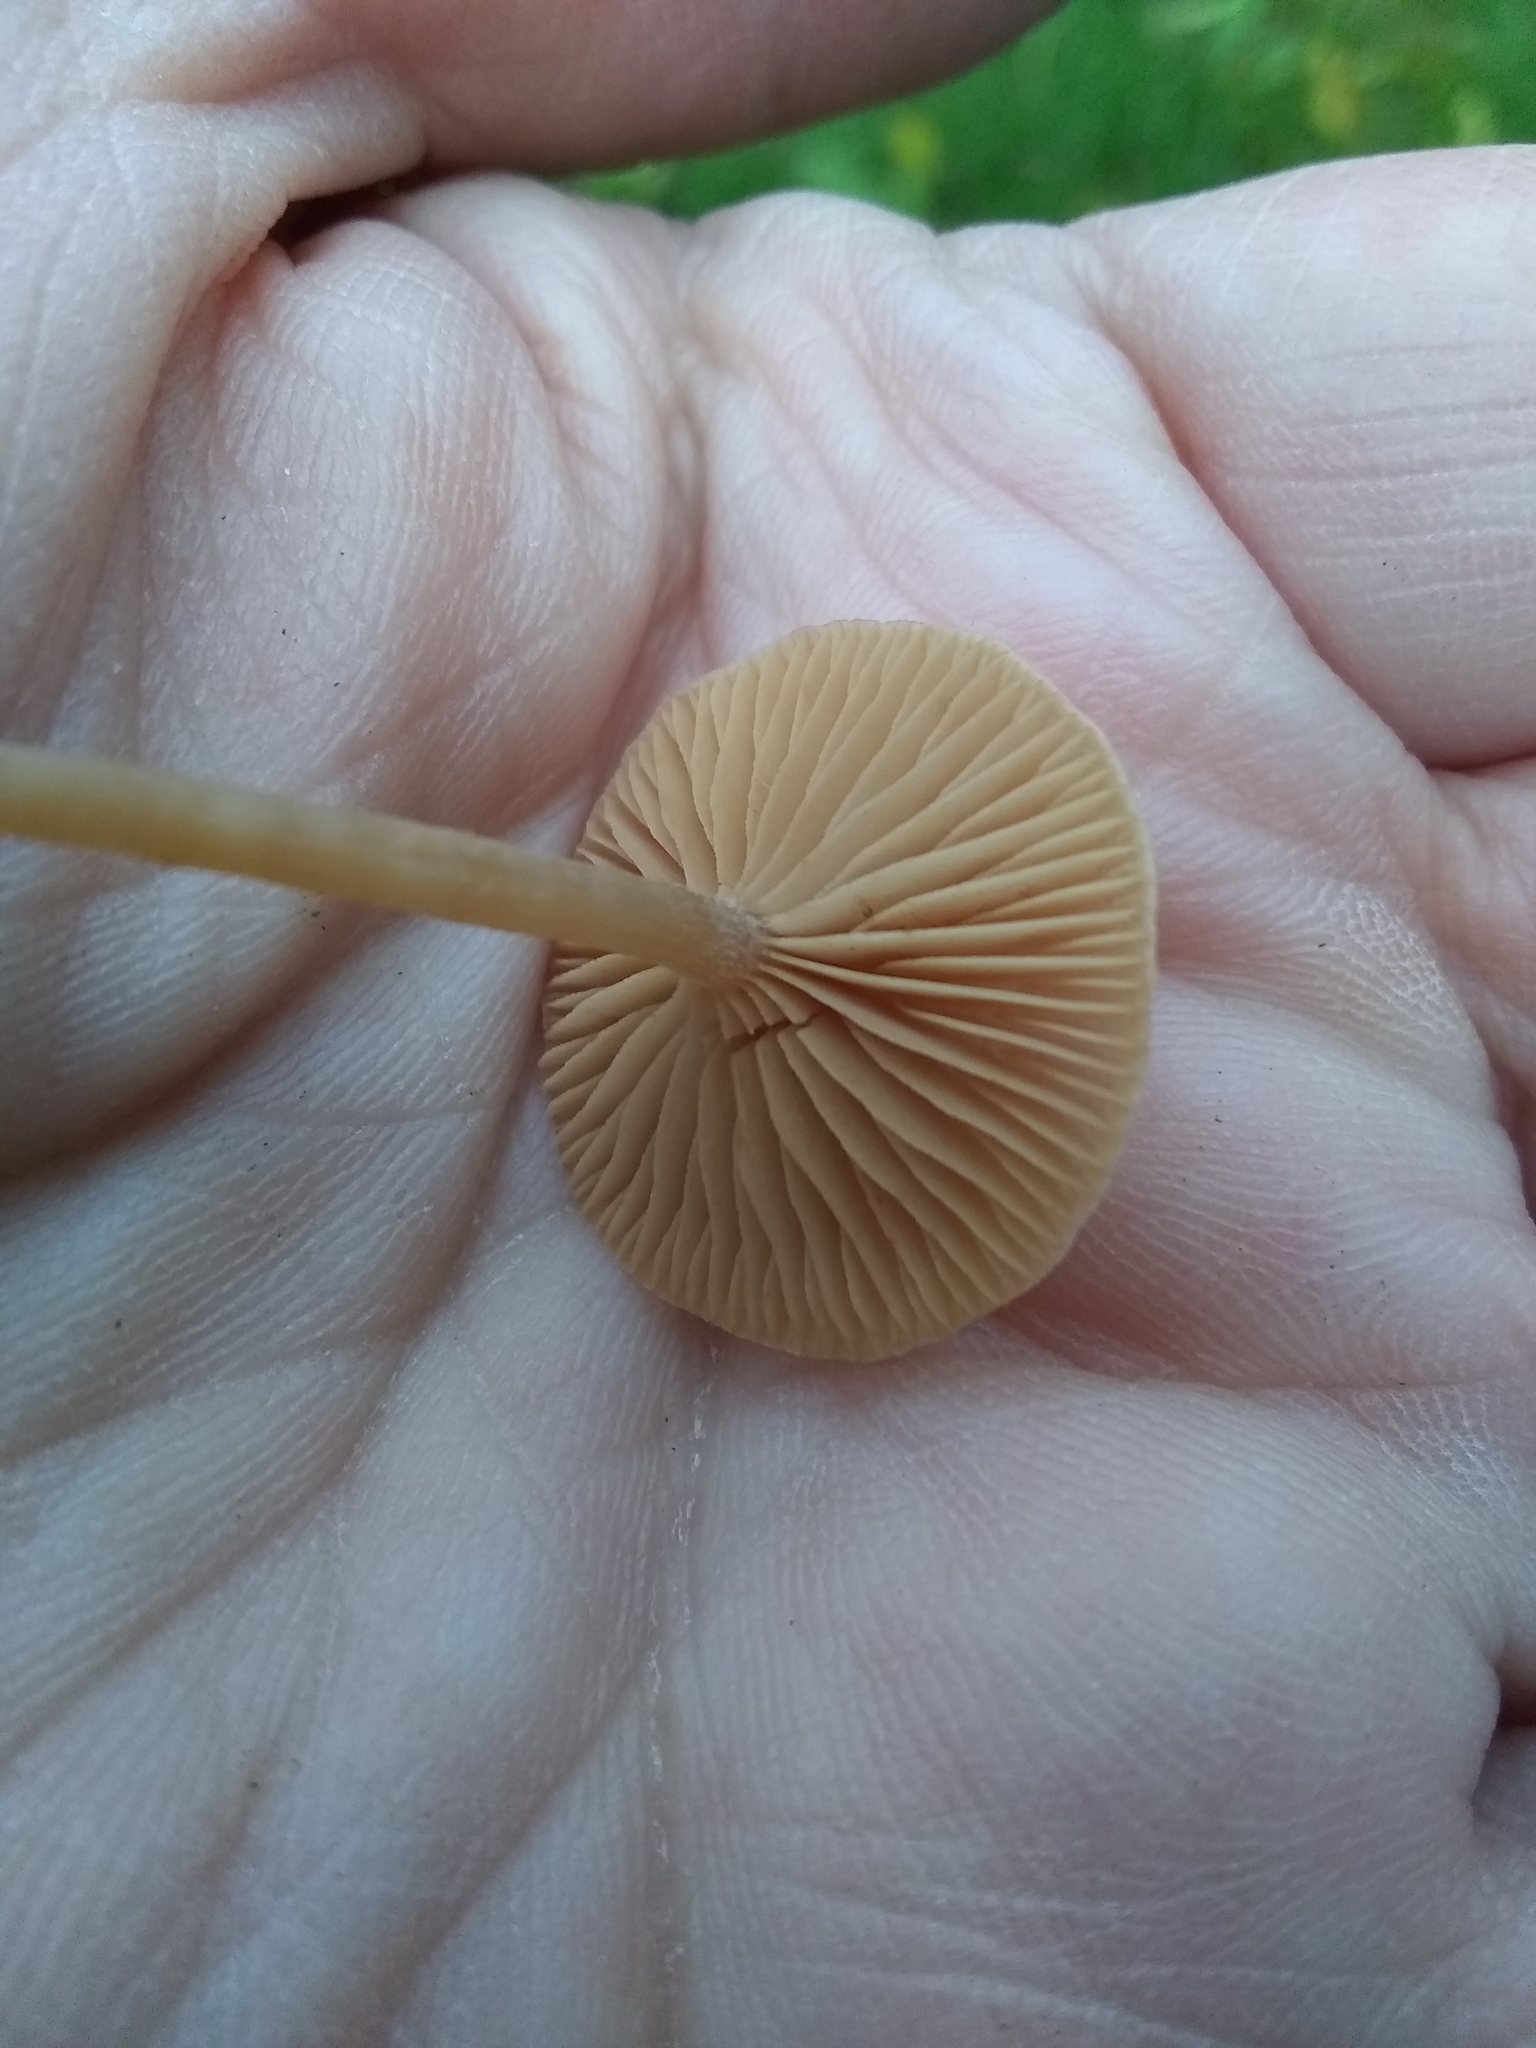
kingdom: Fungi
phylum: Basidiomycota
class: Agaricomycetes
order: Agaricales
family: Tubariaceae
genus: Tubaria
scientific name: Tubaria furfuracea
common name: Scurfy twiglet
